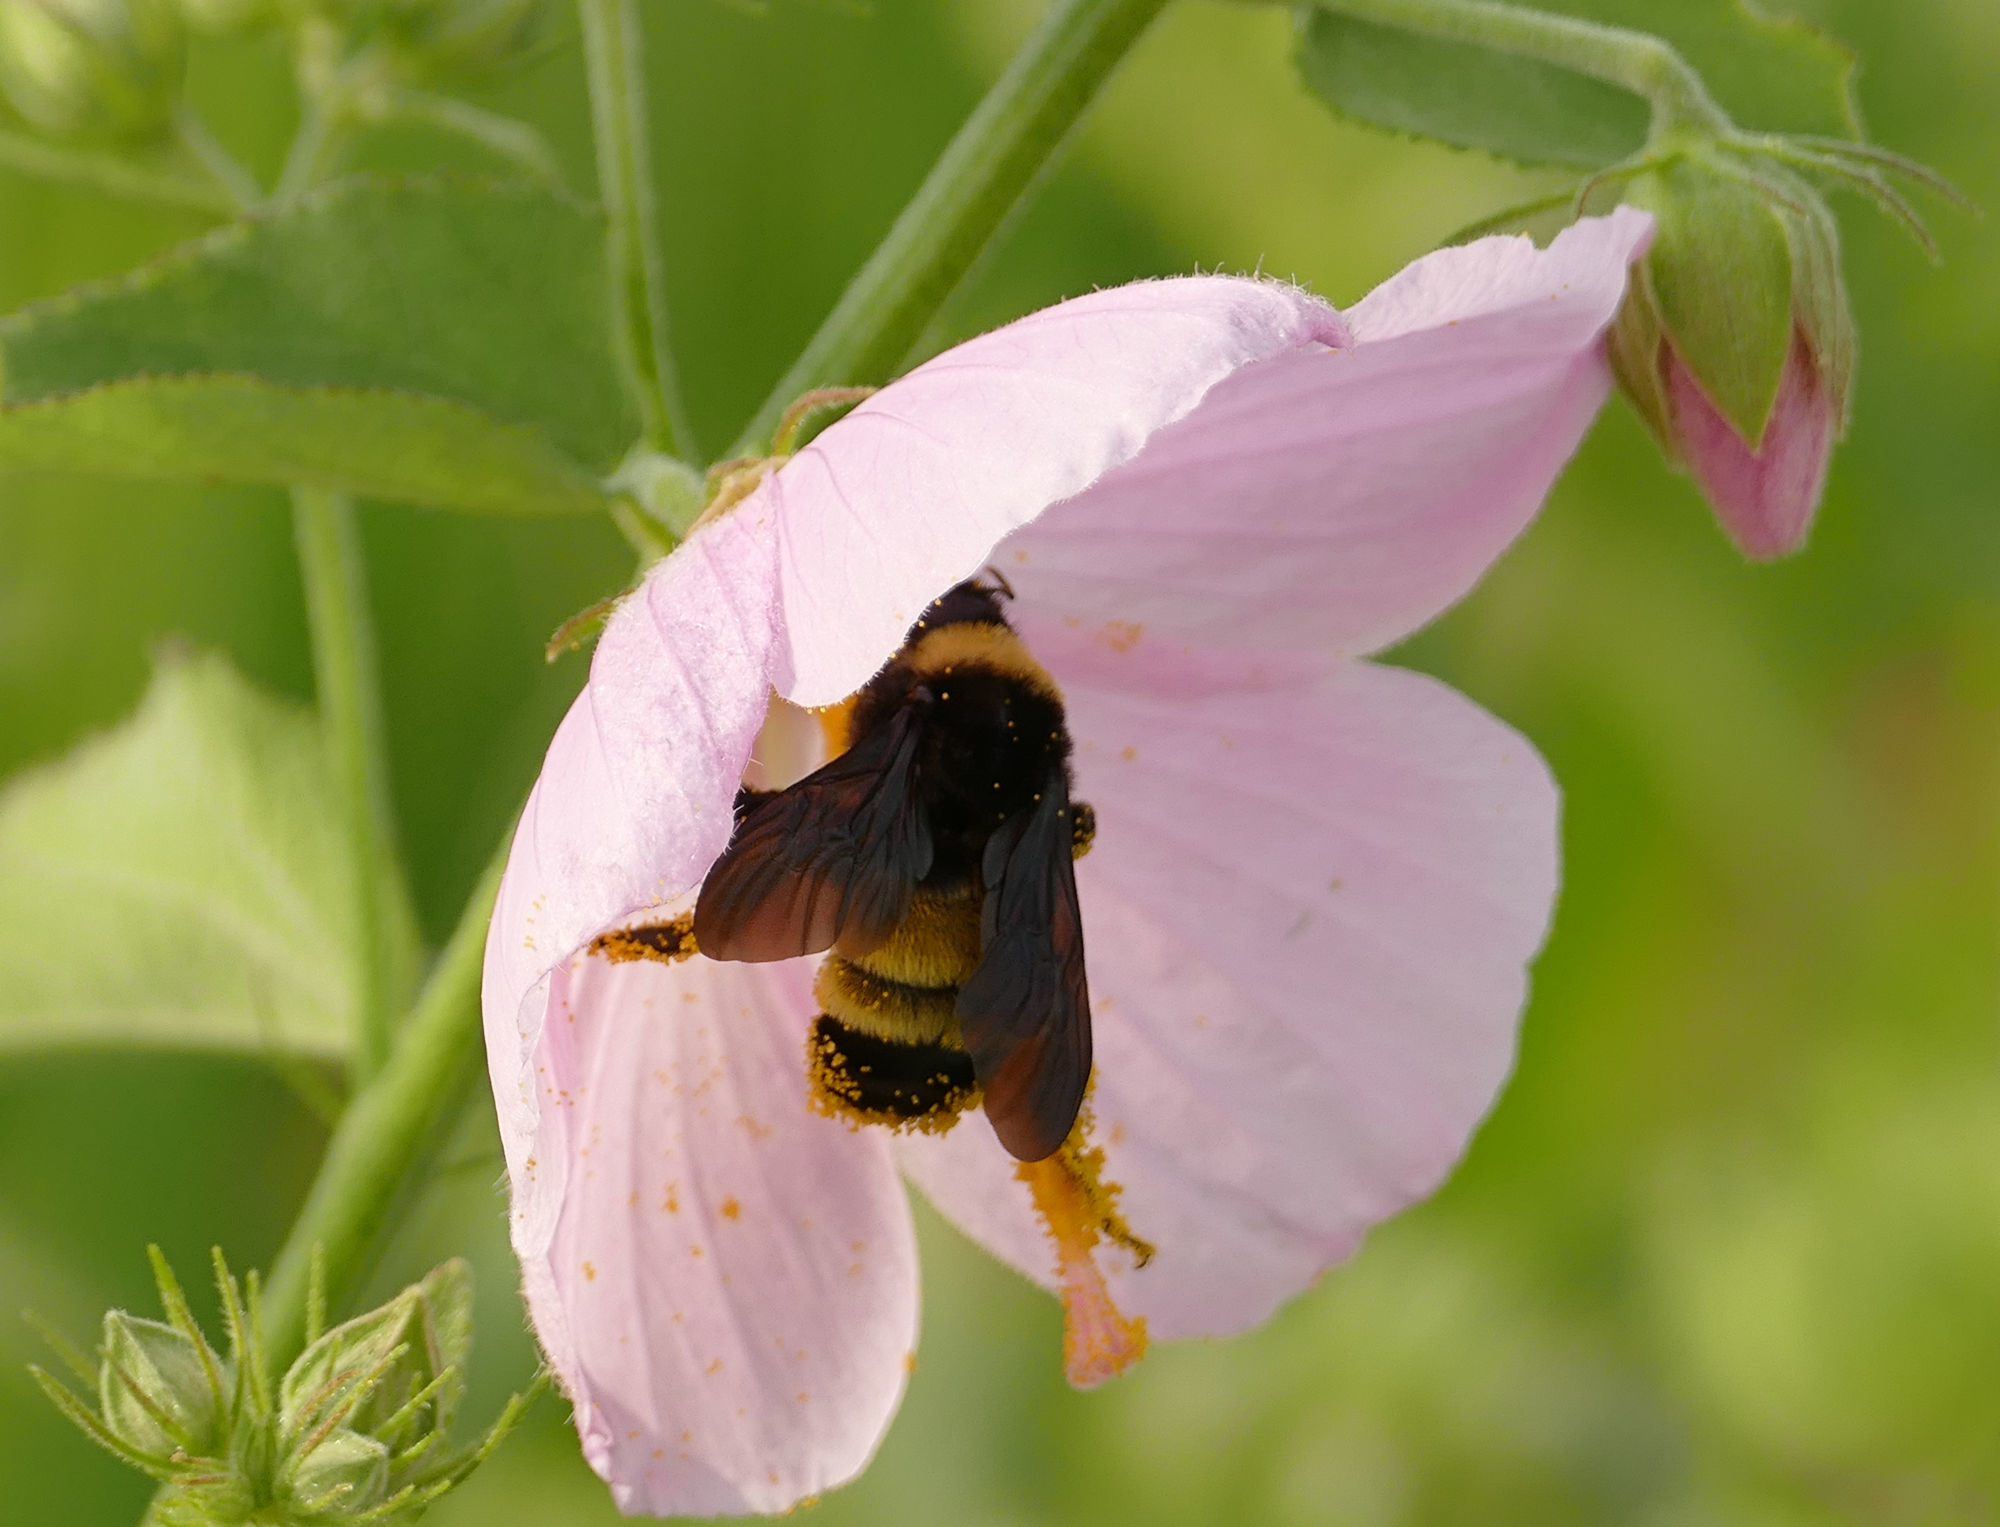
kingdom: Animalia
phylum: Arthropoda
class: Insecta
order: Hymenoptera
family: Apidae
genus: Bombus
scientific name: Bombus pensylvanicus
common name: Bumble bee
